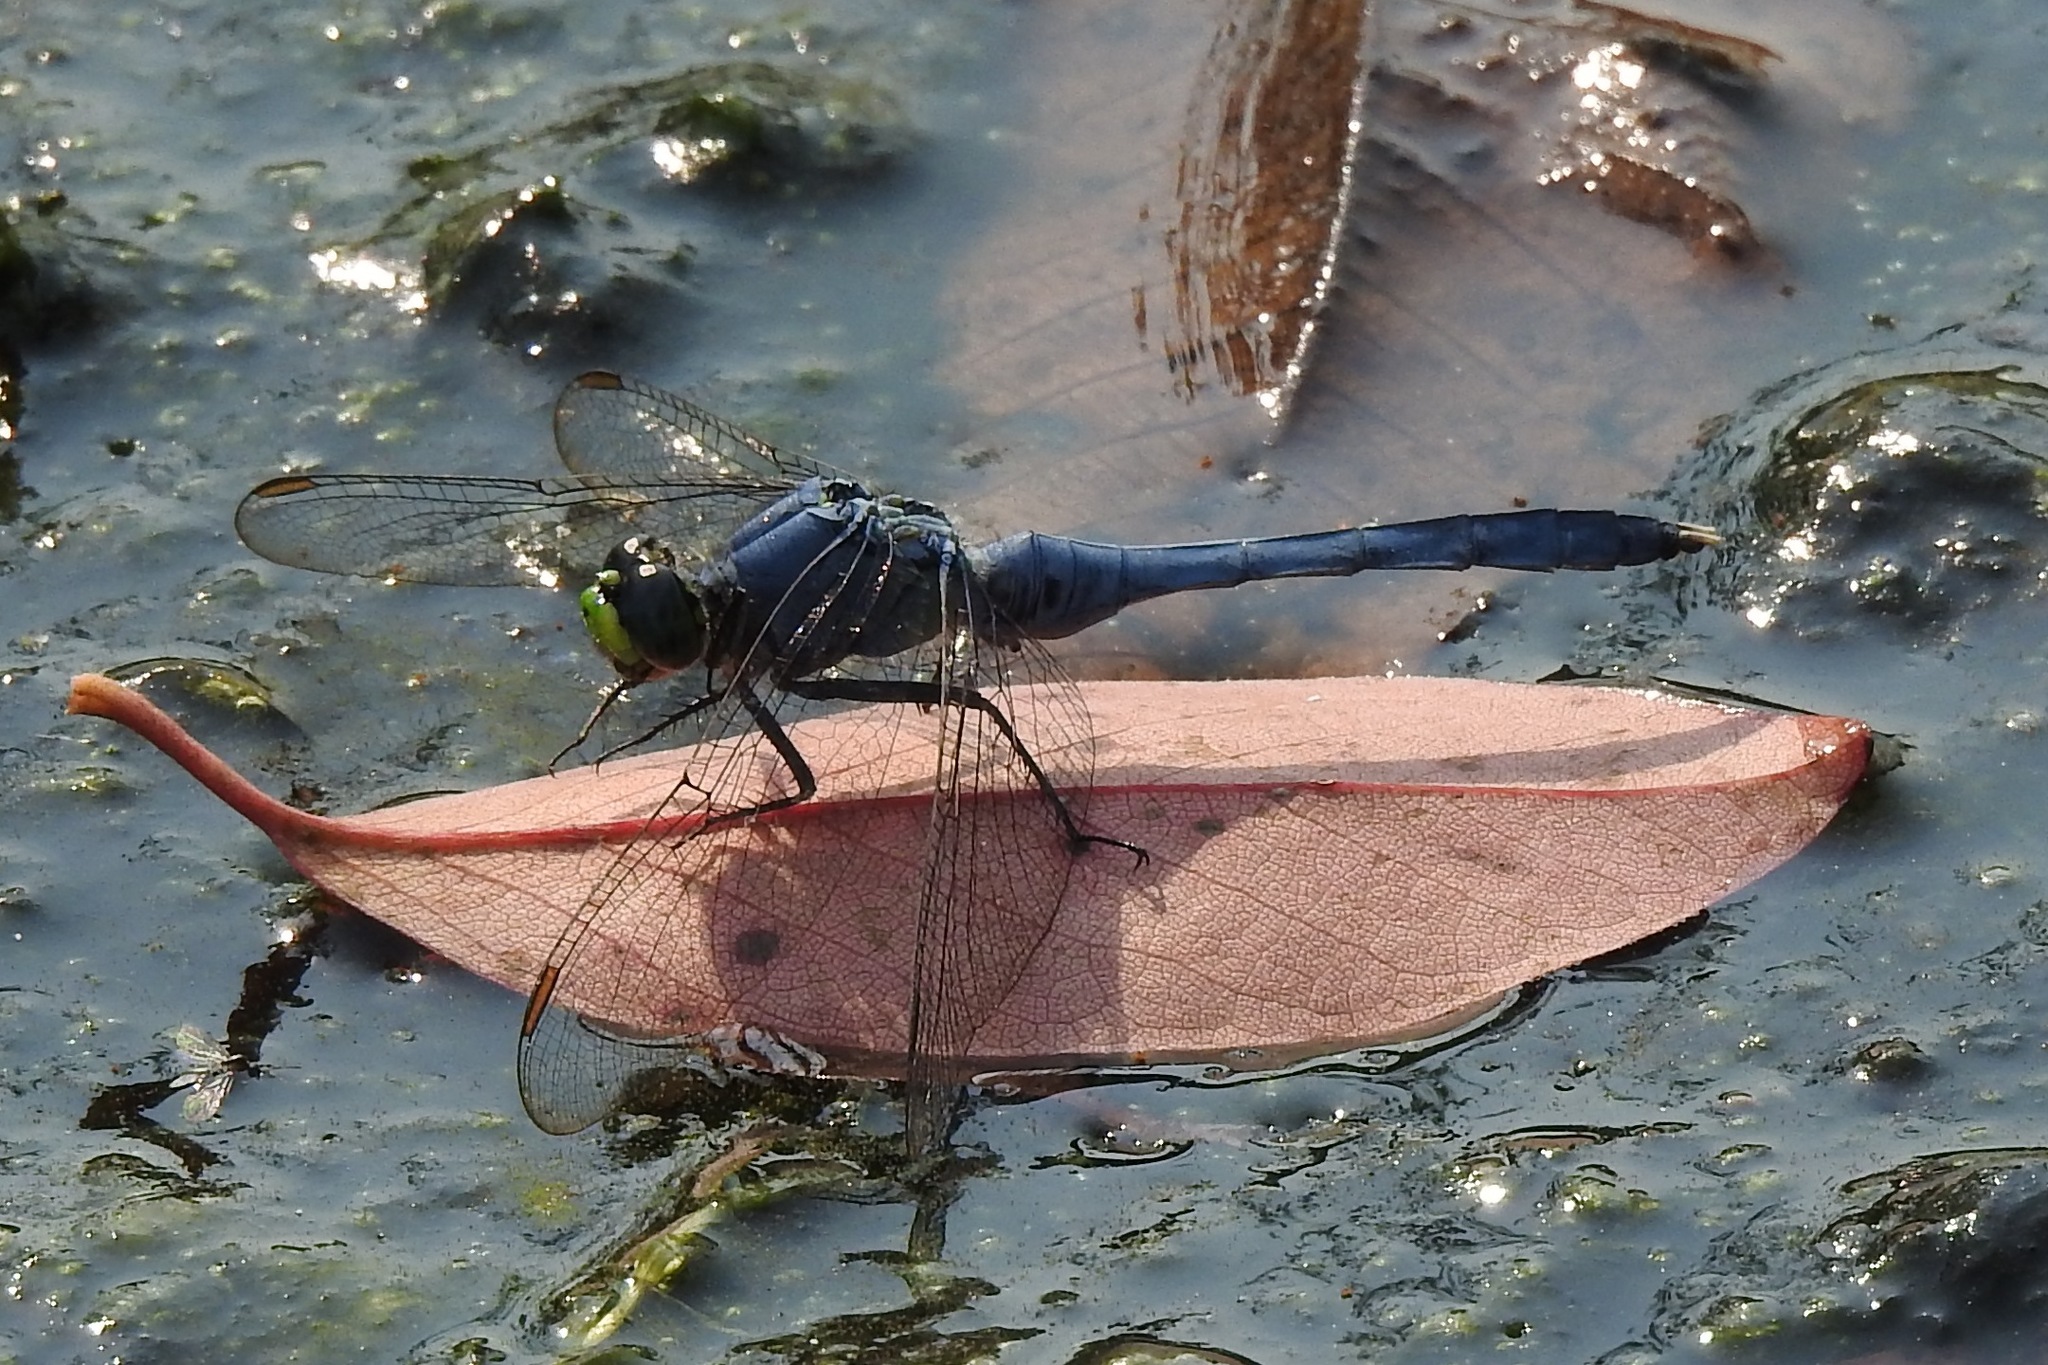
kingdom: Animalia
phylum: Arthropoda
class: Insecta
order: Odonata
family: Libellulidae
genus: Erythemis
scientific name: Erythemis simplicicollis
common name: Eastern pondhawk
